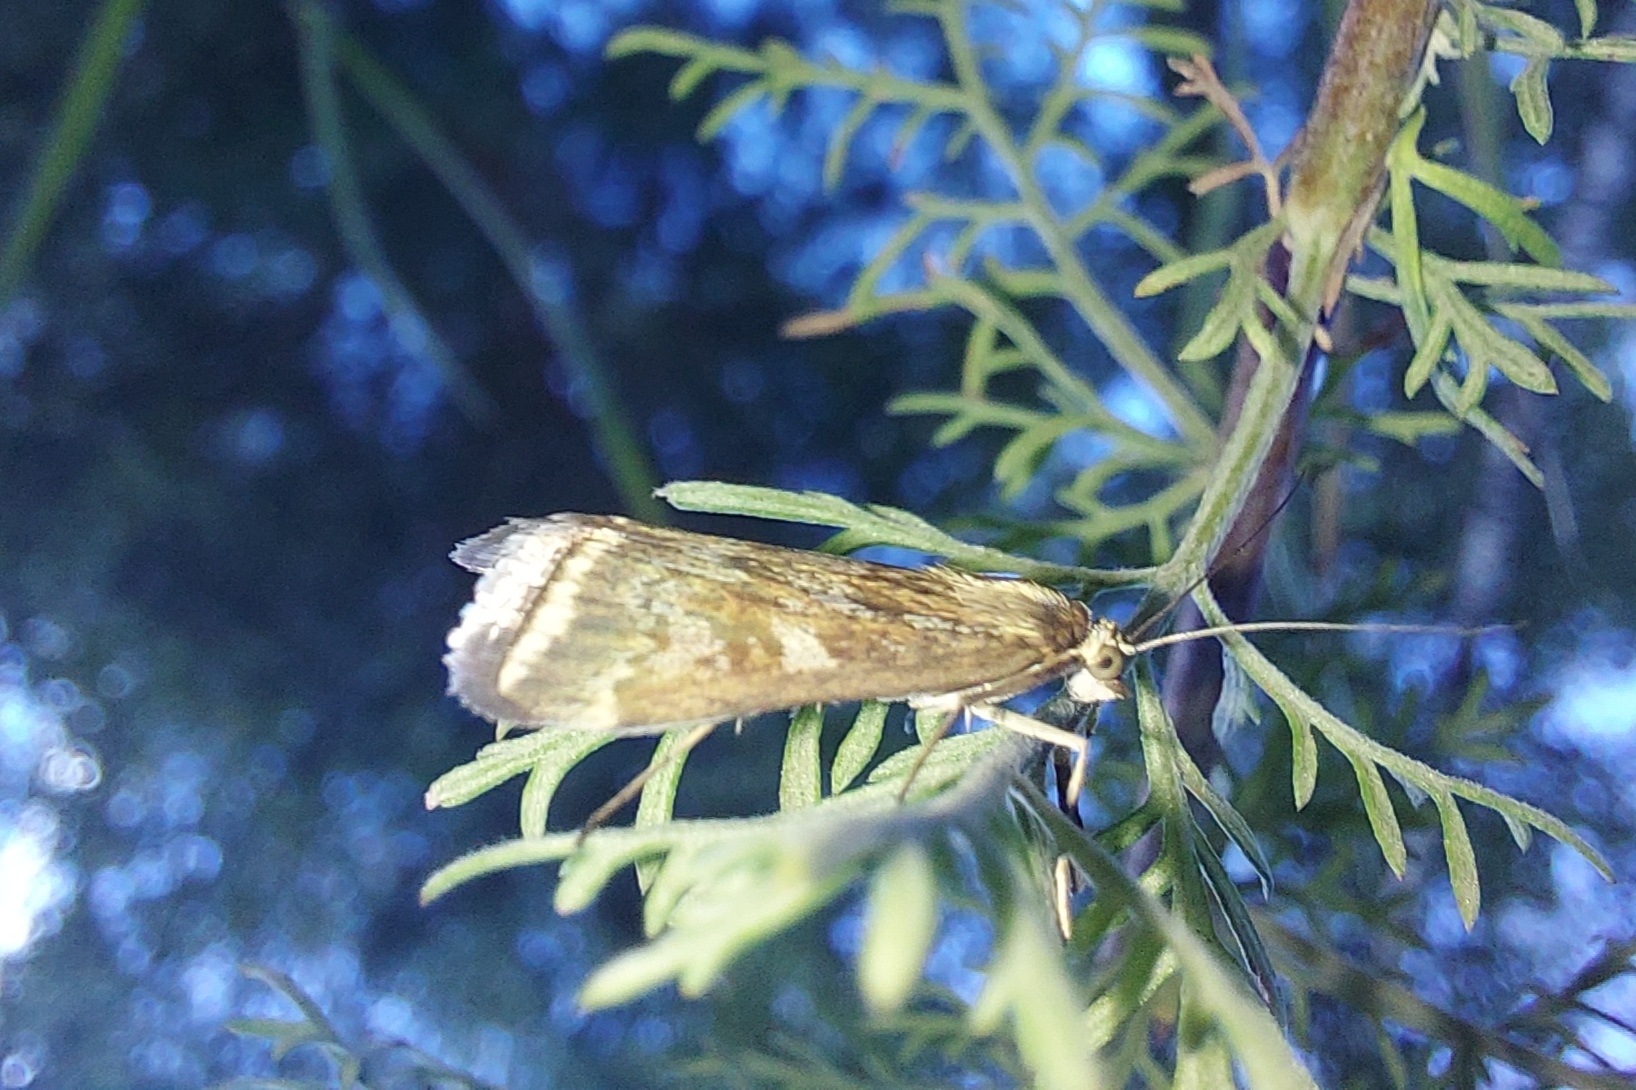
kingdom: Animalia
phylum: Arthropoda
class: Insecta
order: Lepidoptera
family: Crambidae
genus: Loxostege
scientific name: Loxostege sticticalis
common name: Crambid moth
